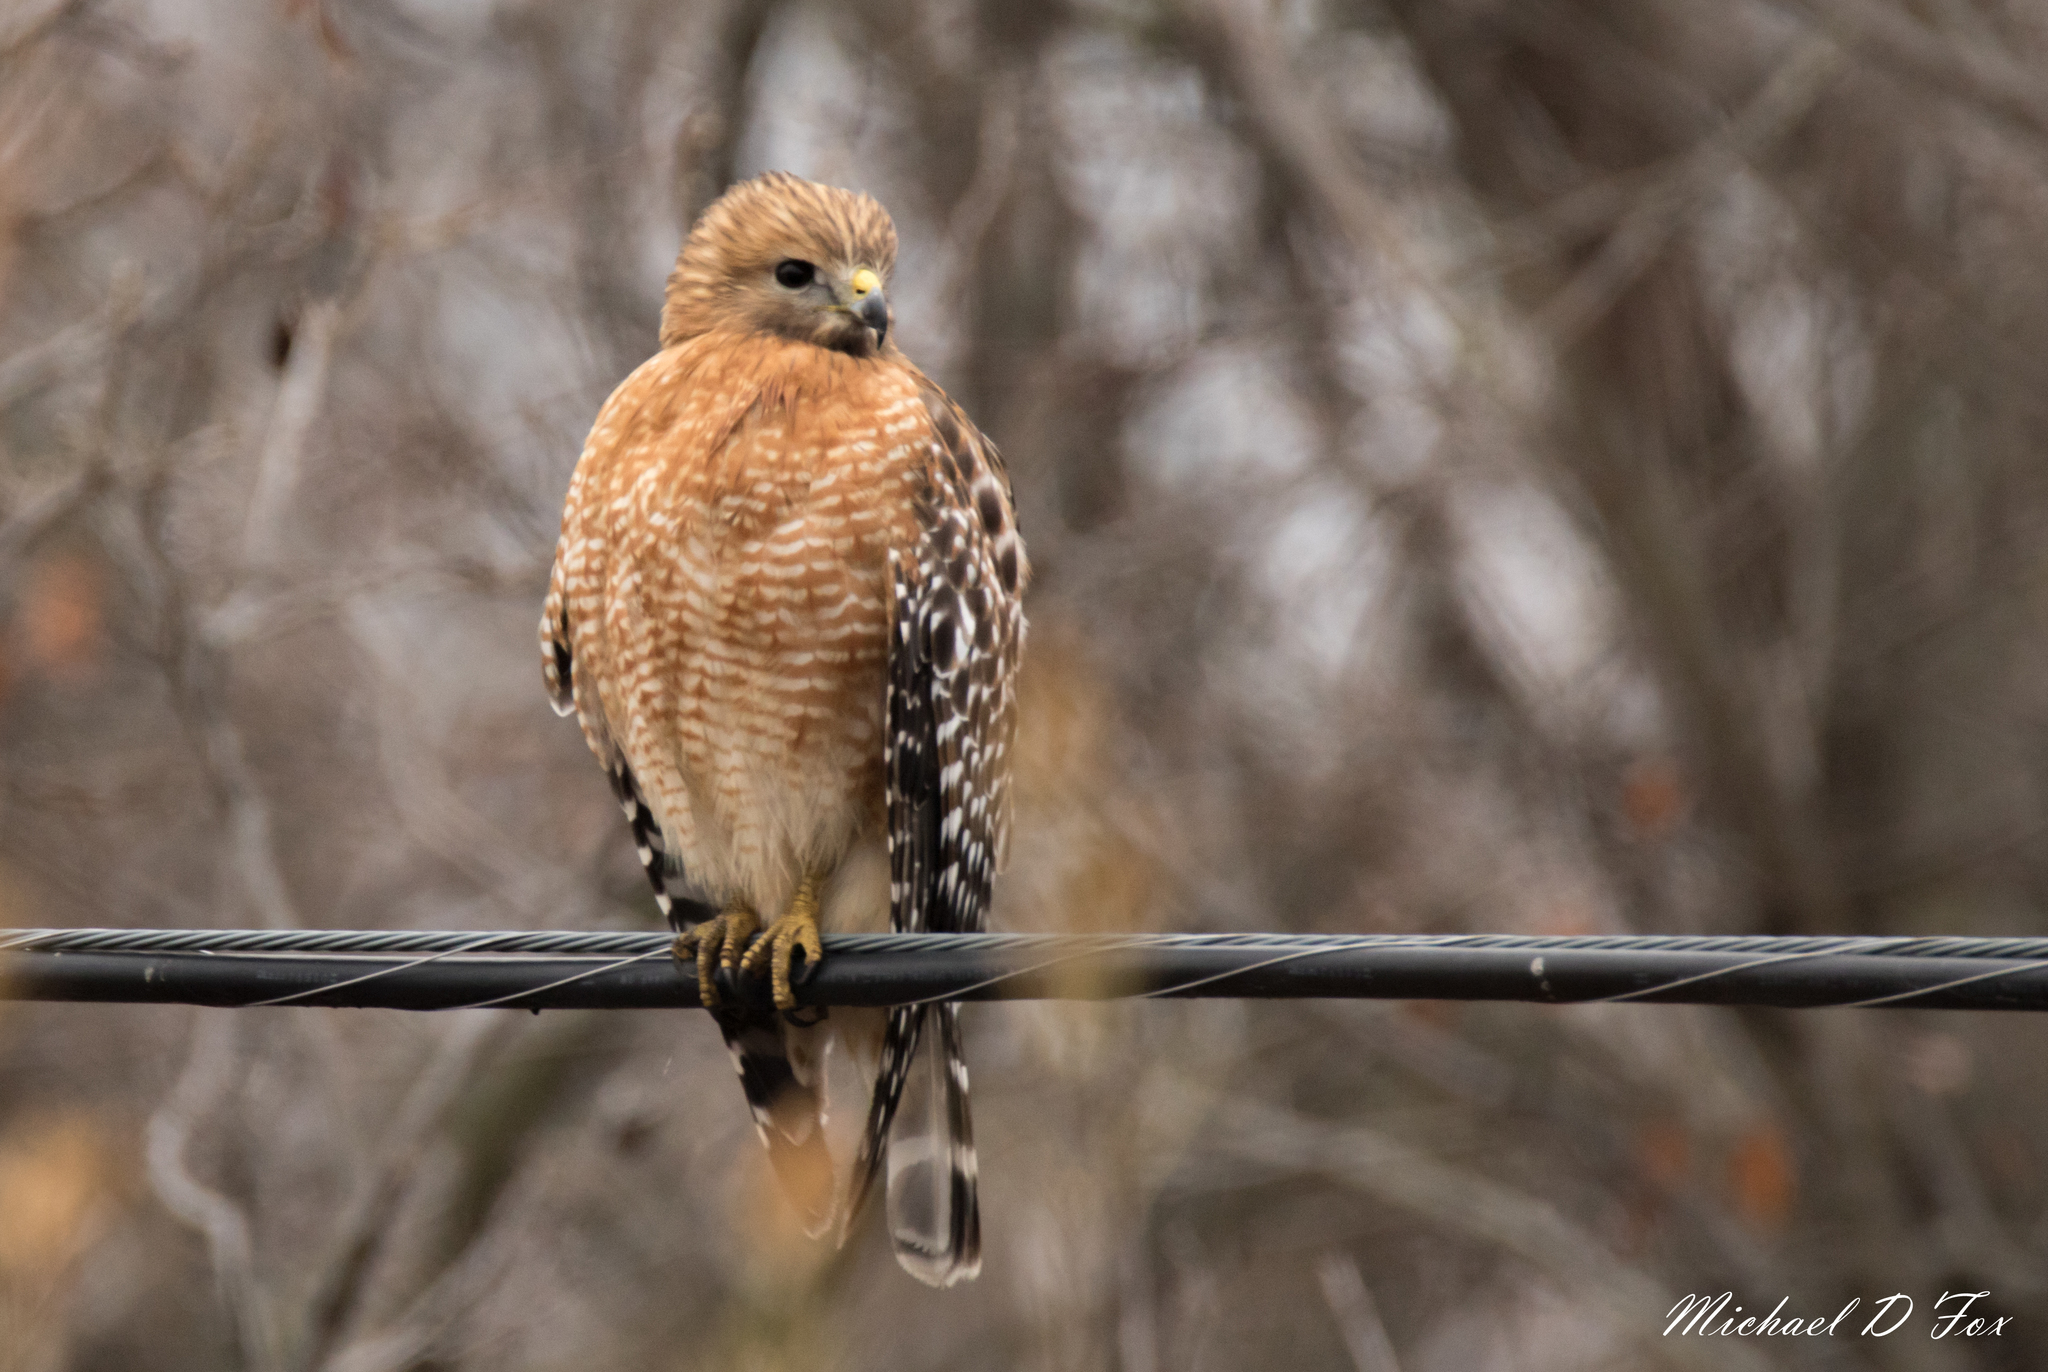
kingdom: Animalia
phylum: Chordata
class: Aves
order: Accipitriformes
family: Accipitridae
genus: Buteo
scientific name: Buteo lineatus
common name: Red-shouldered hawk
